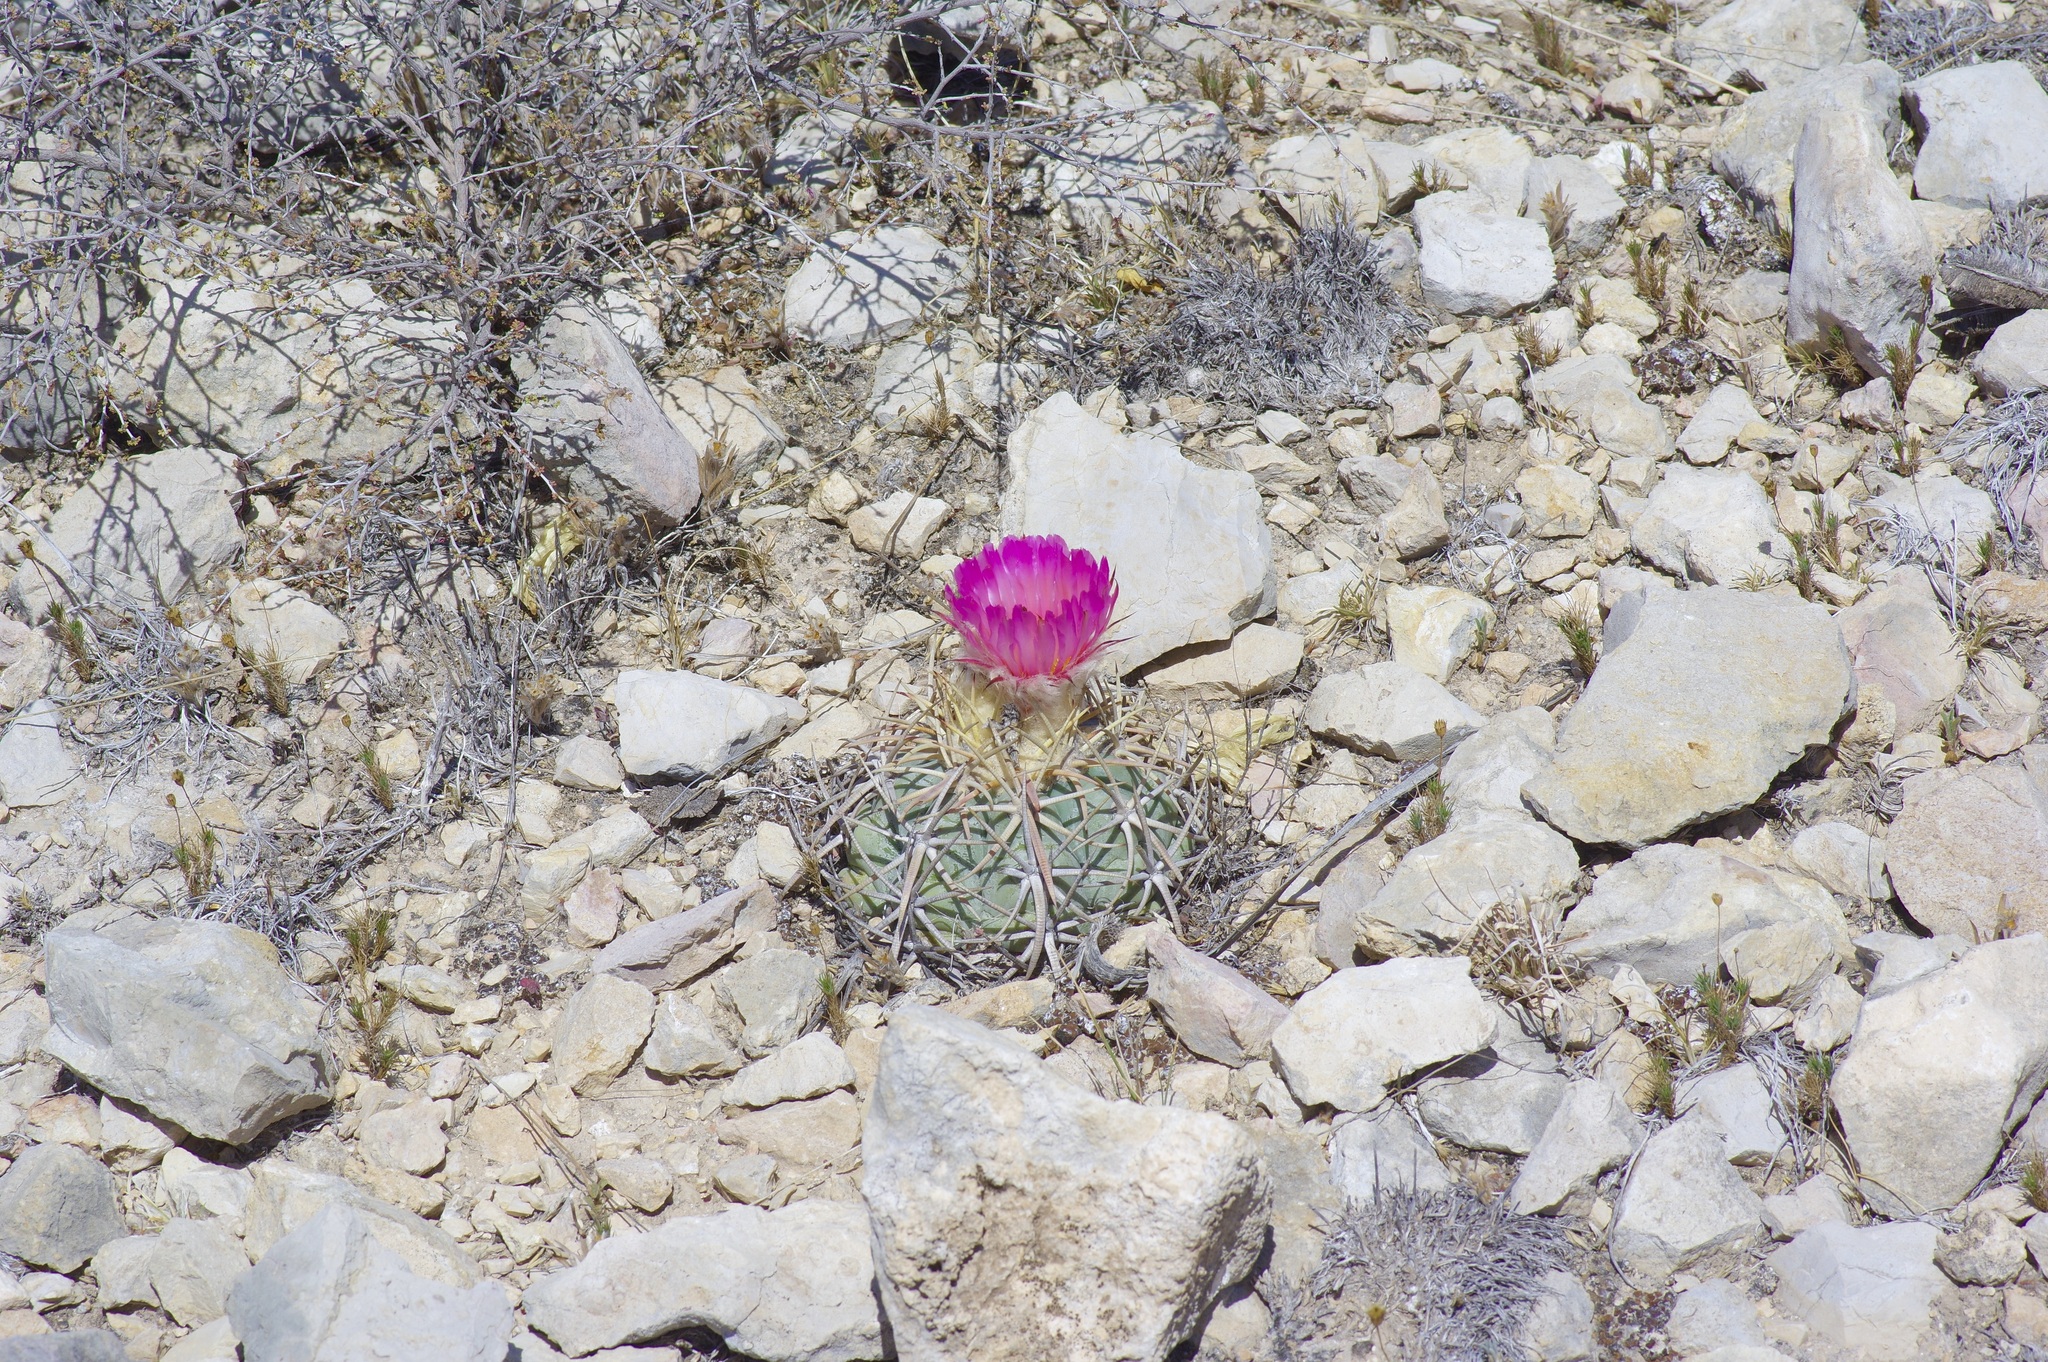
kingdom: Plantae
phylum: Tracheophyta
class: Magnoliopsida
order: Caryophyllales
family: Cactaceae
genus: Echinocactus
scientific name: Echinocactus horizonthalonius
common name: Devilshead
